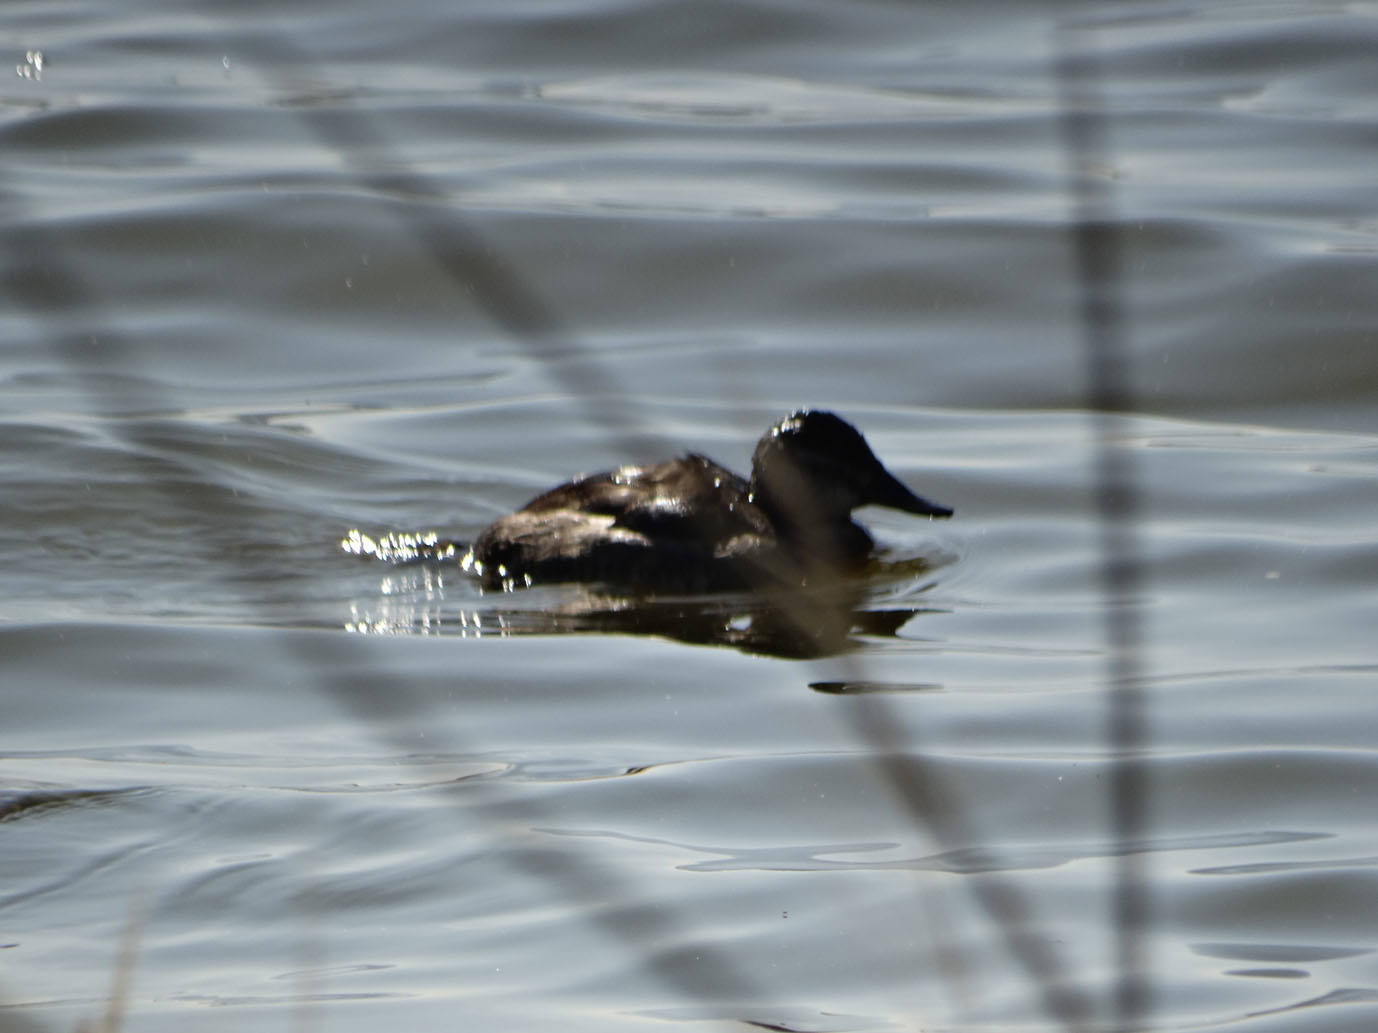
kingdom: Animalia
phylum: Chordata
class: Aves
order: Anseriformes
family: Anatidae
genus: Oxyura
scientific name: Oxyura jamaicensis
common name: Ruddy duck
